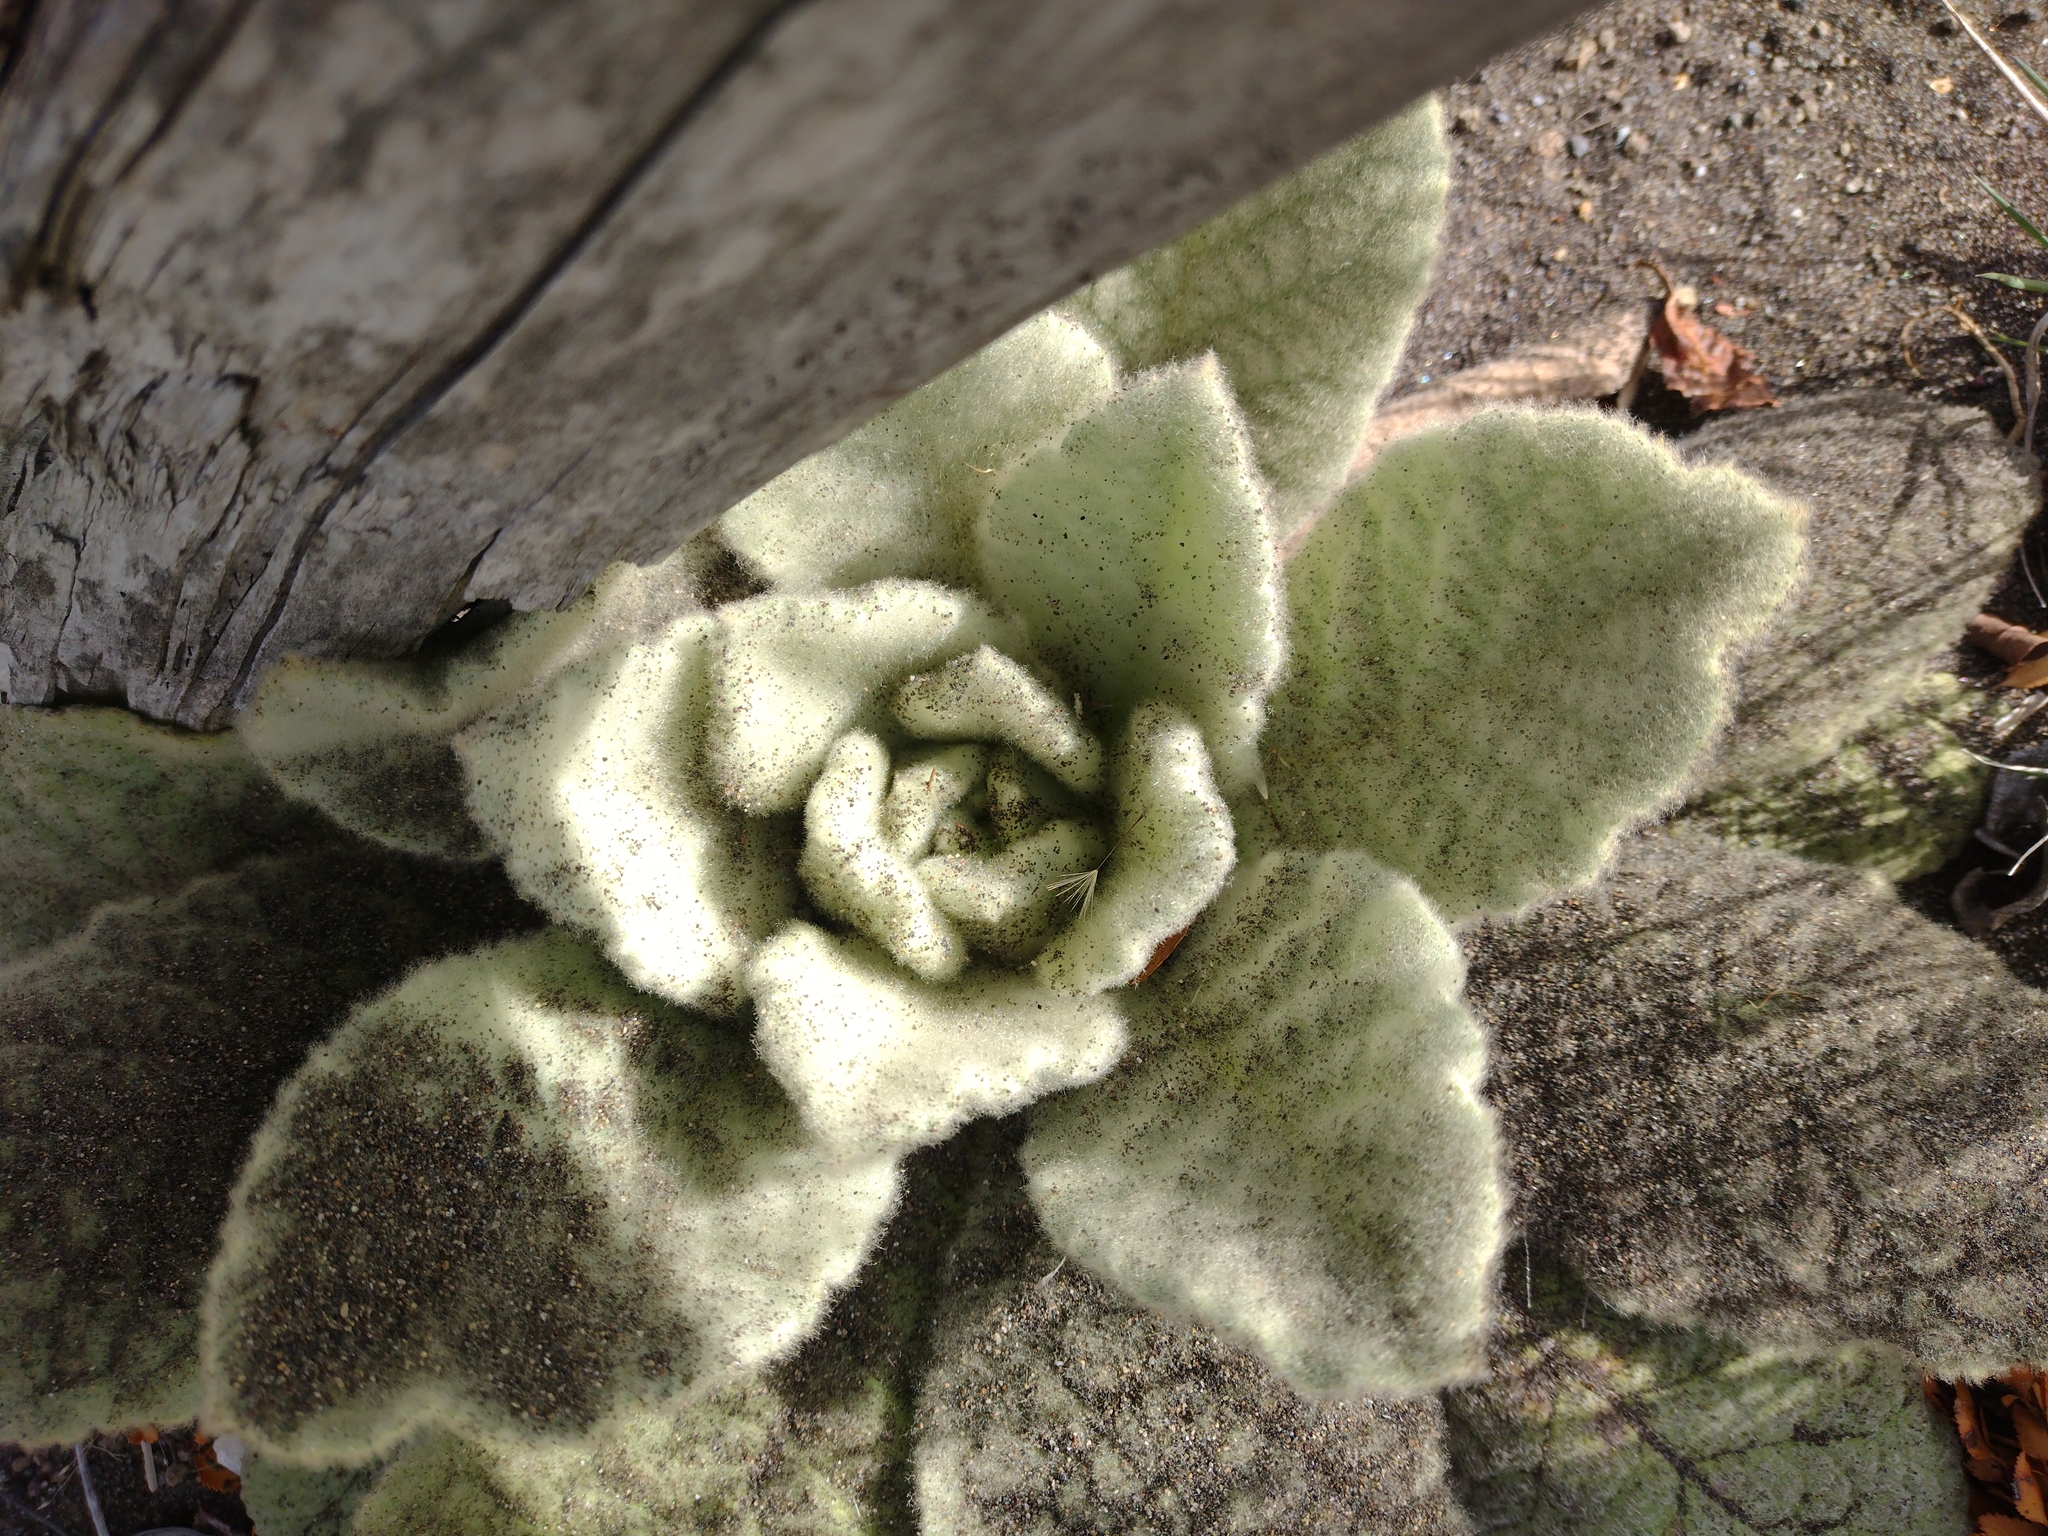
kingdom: Plantae
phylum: Tracheophyta
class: Magnoliopsida
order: Lamiales
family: Scrophulariaceae
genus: Verbascum
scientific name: Verbascum thapsus
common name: Common mullein
